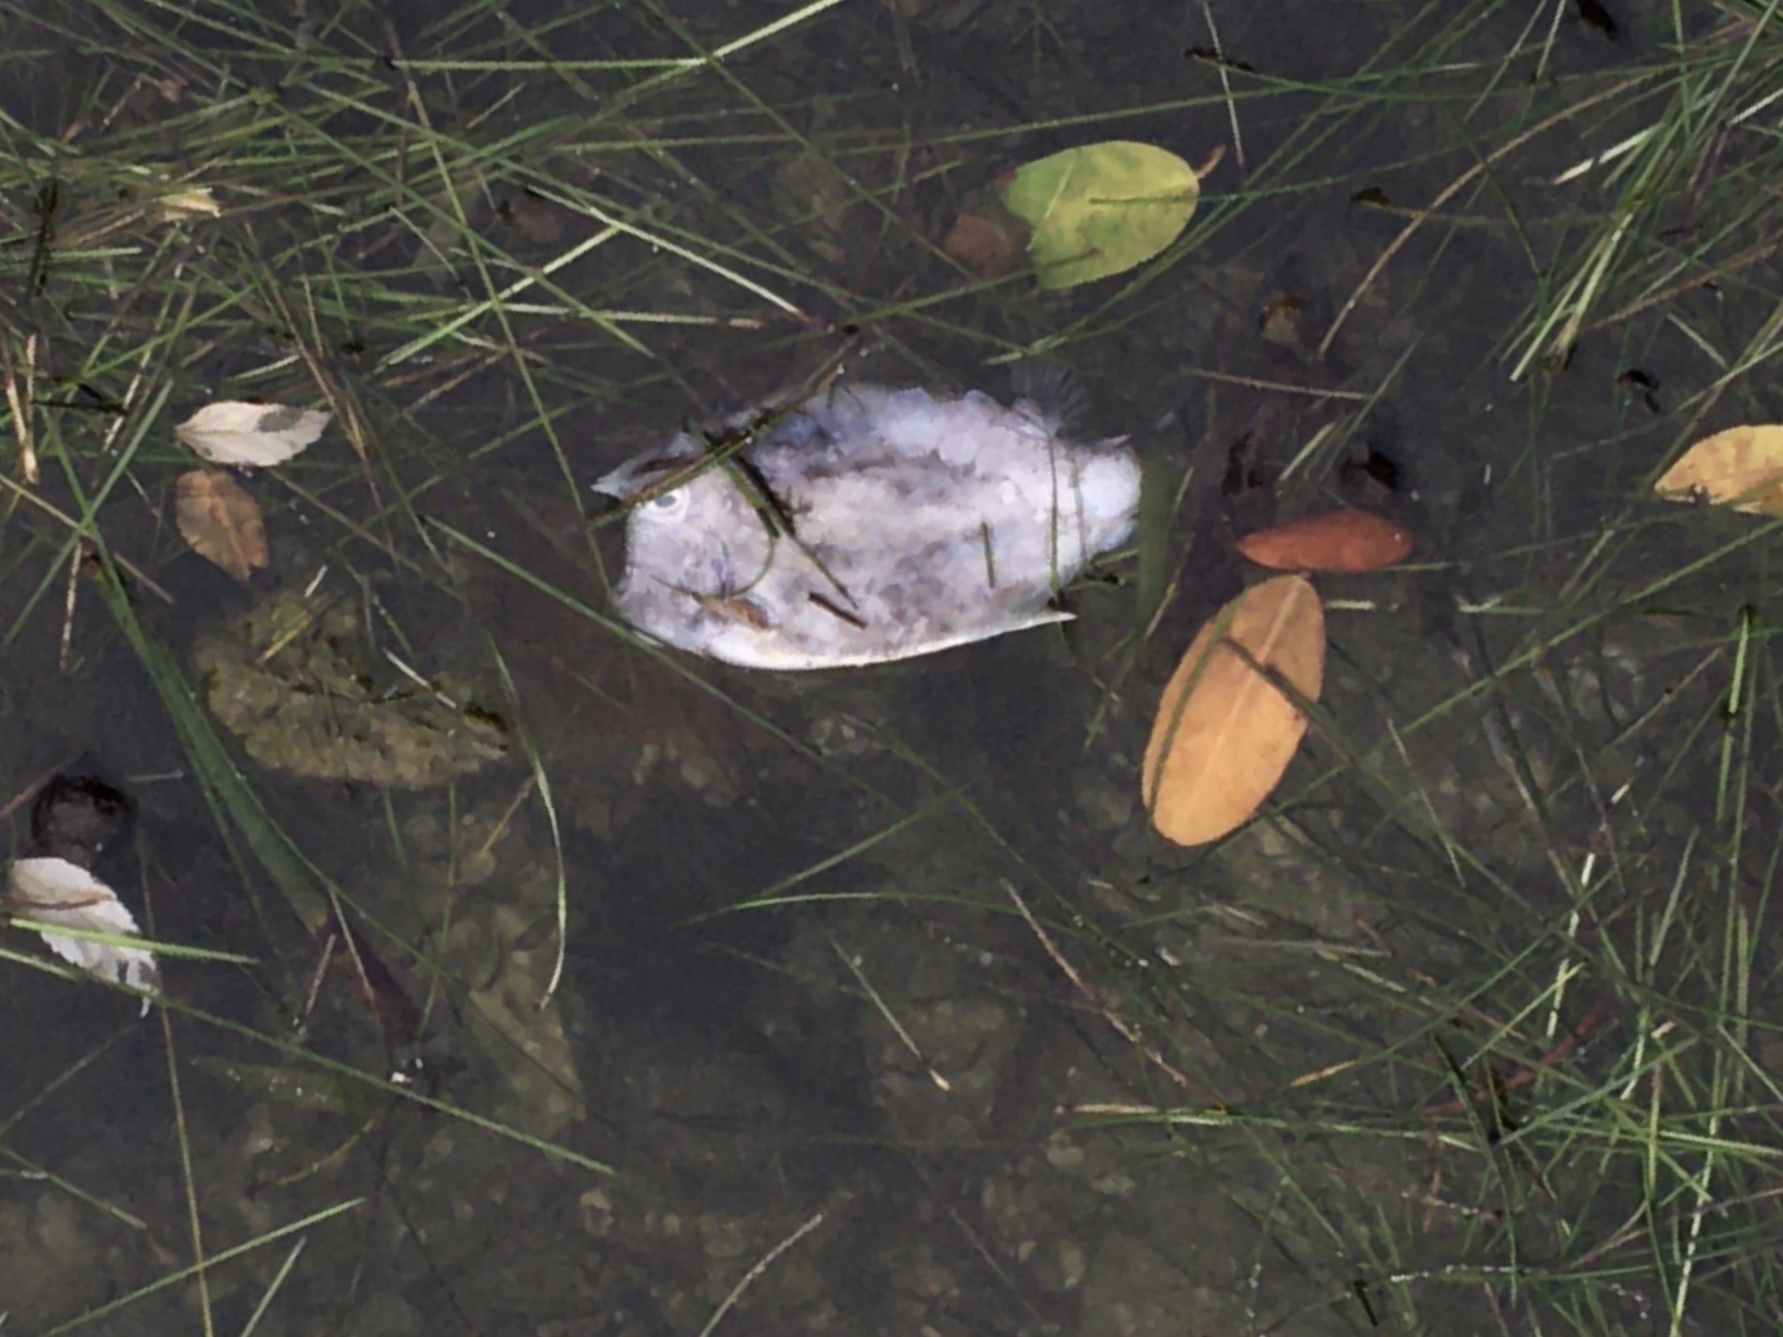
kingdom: Animalia
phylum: Chordata
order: Tetraodontiformes
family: Ostraciidae
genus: Acanthostracion
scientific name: Acanthostracion quadricornis
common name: Scrawled cowfish
